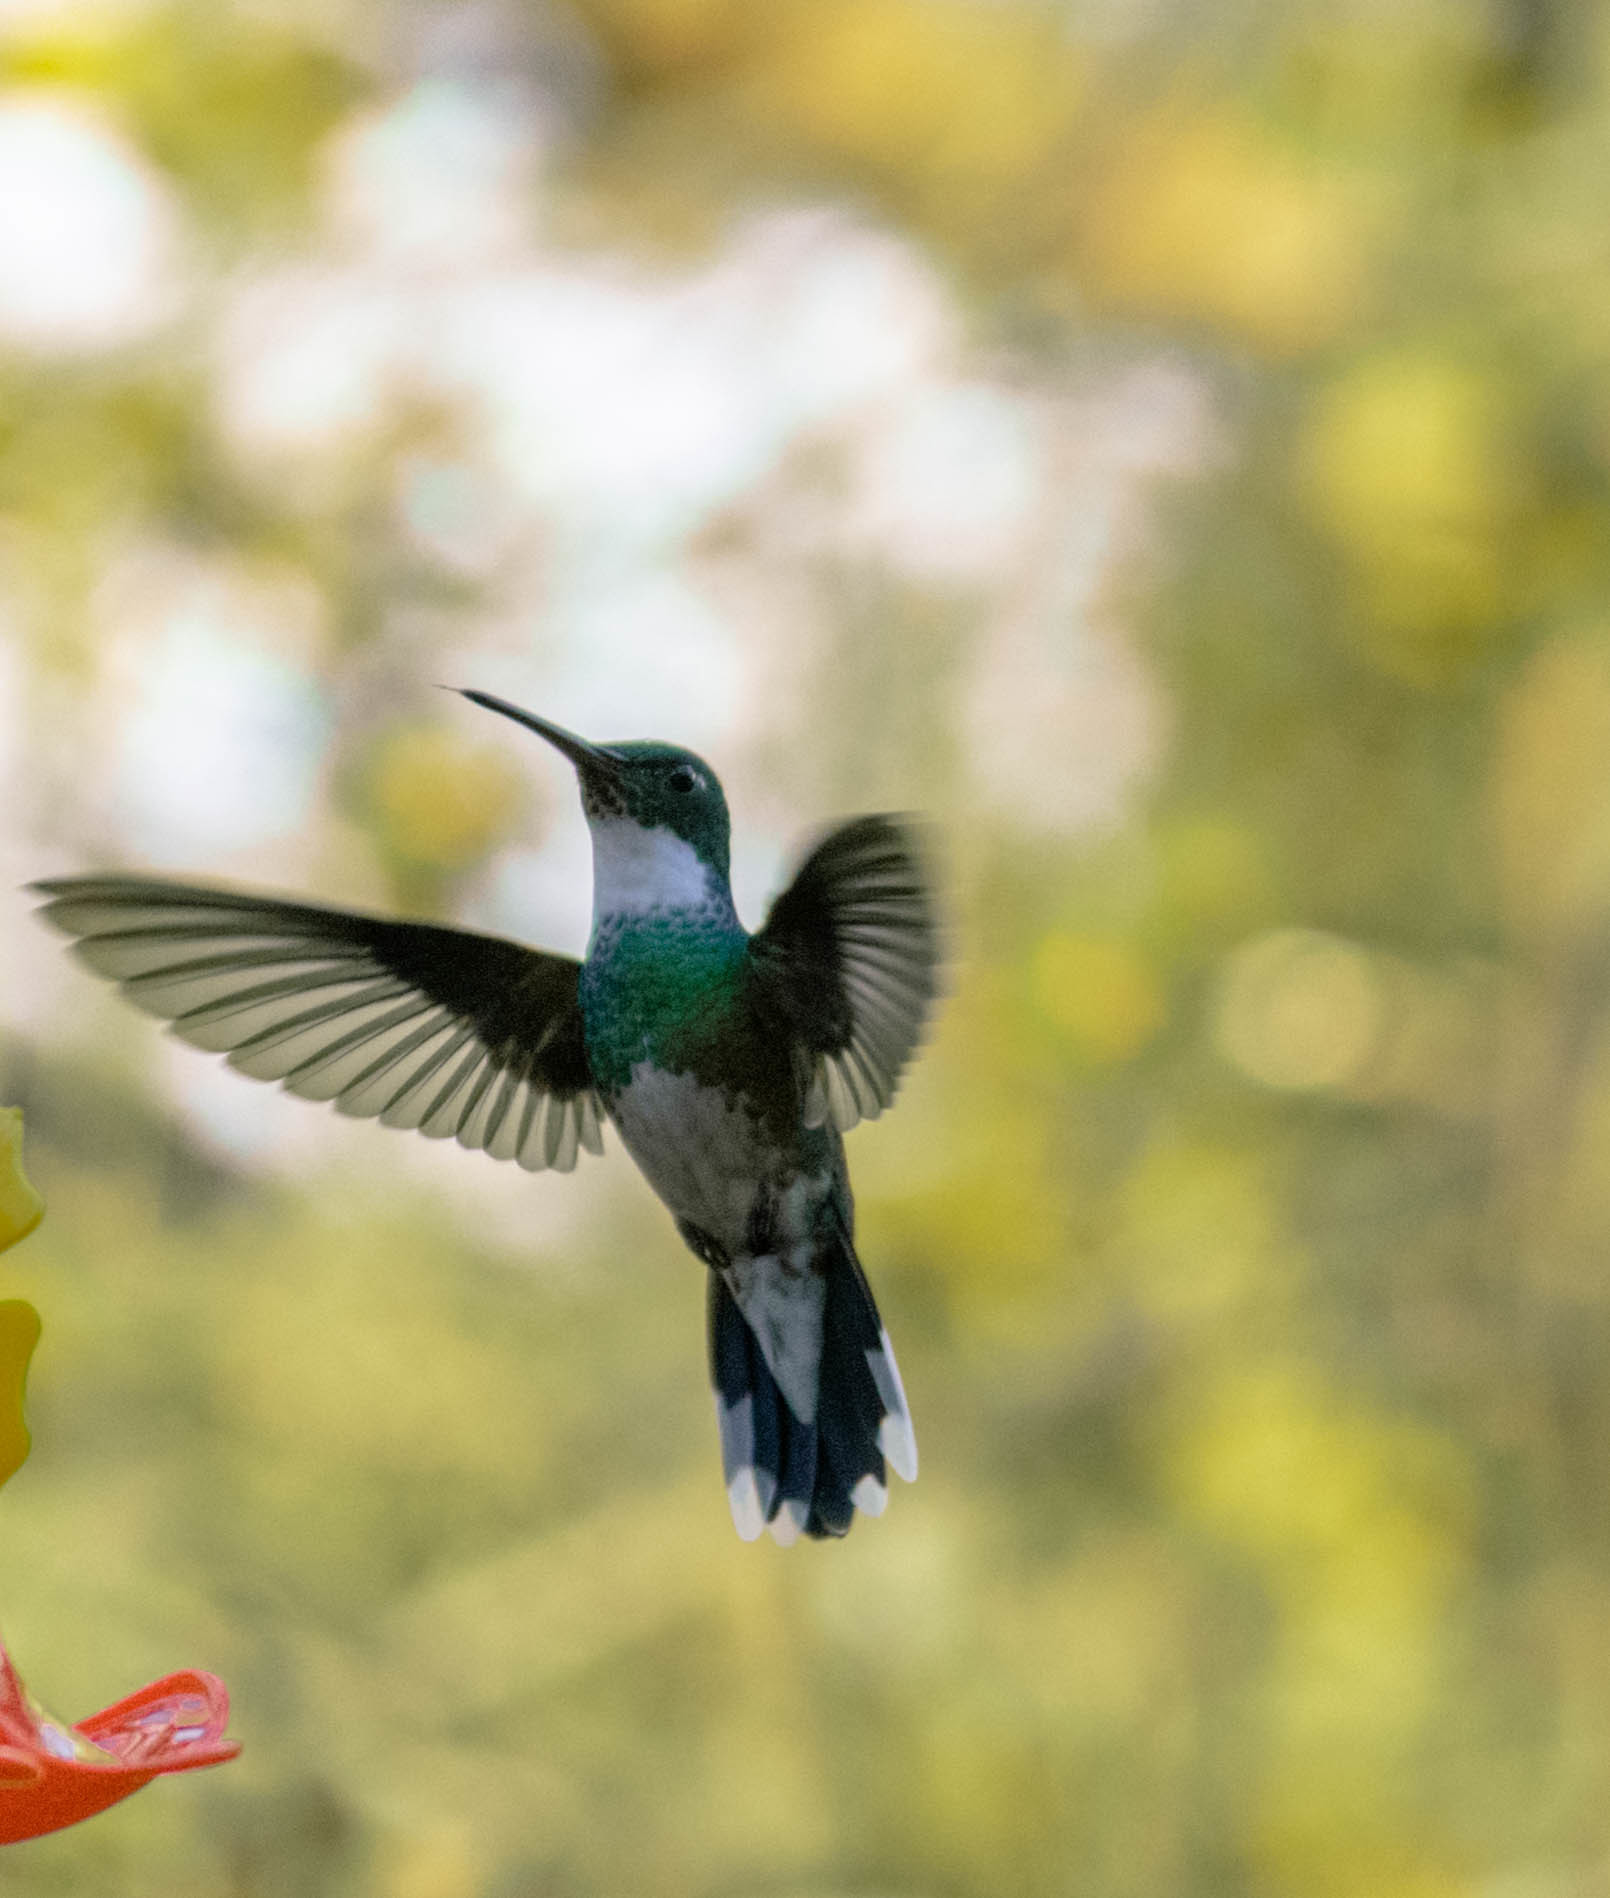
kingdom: Animalia
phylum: Chordata
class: Aves
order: Apodiformes
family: Trochilidae
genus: Leucochloris
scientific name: Leucochloris albicollis
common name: White-throated hummingbird
